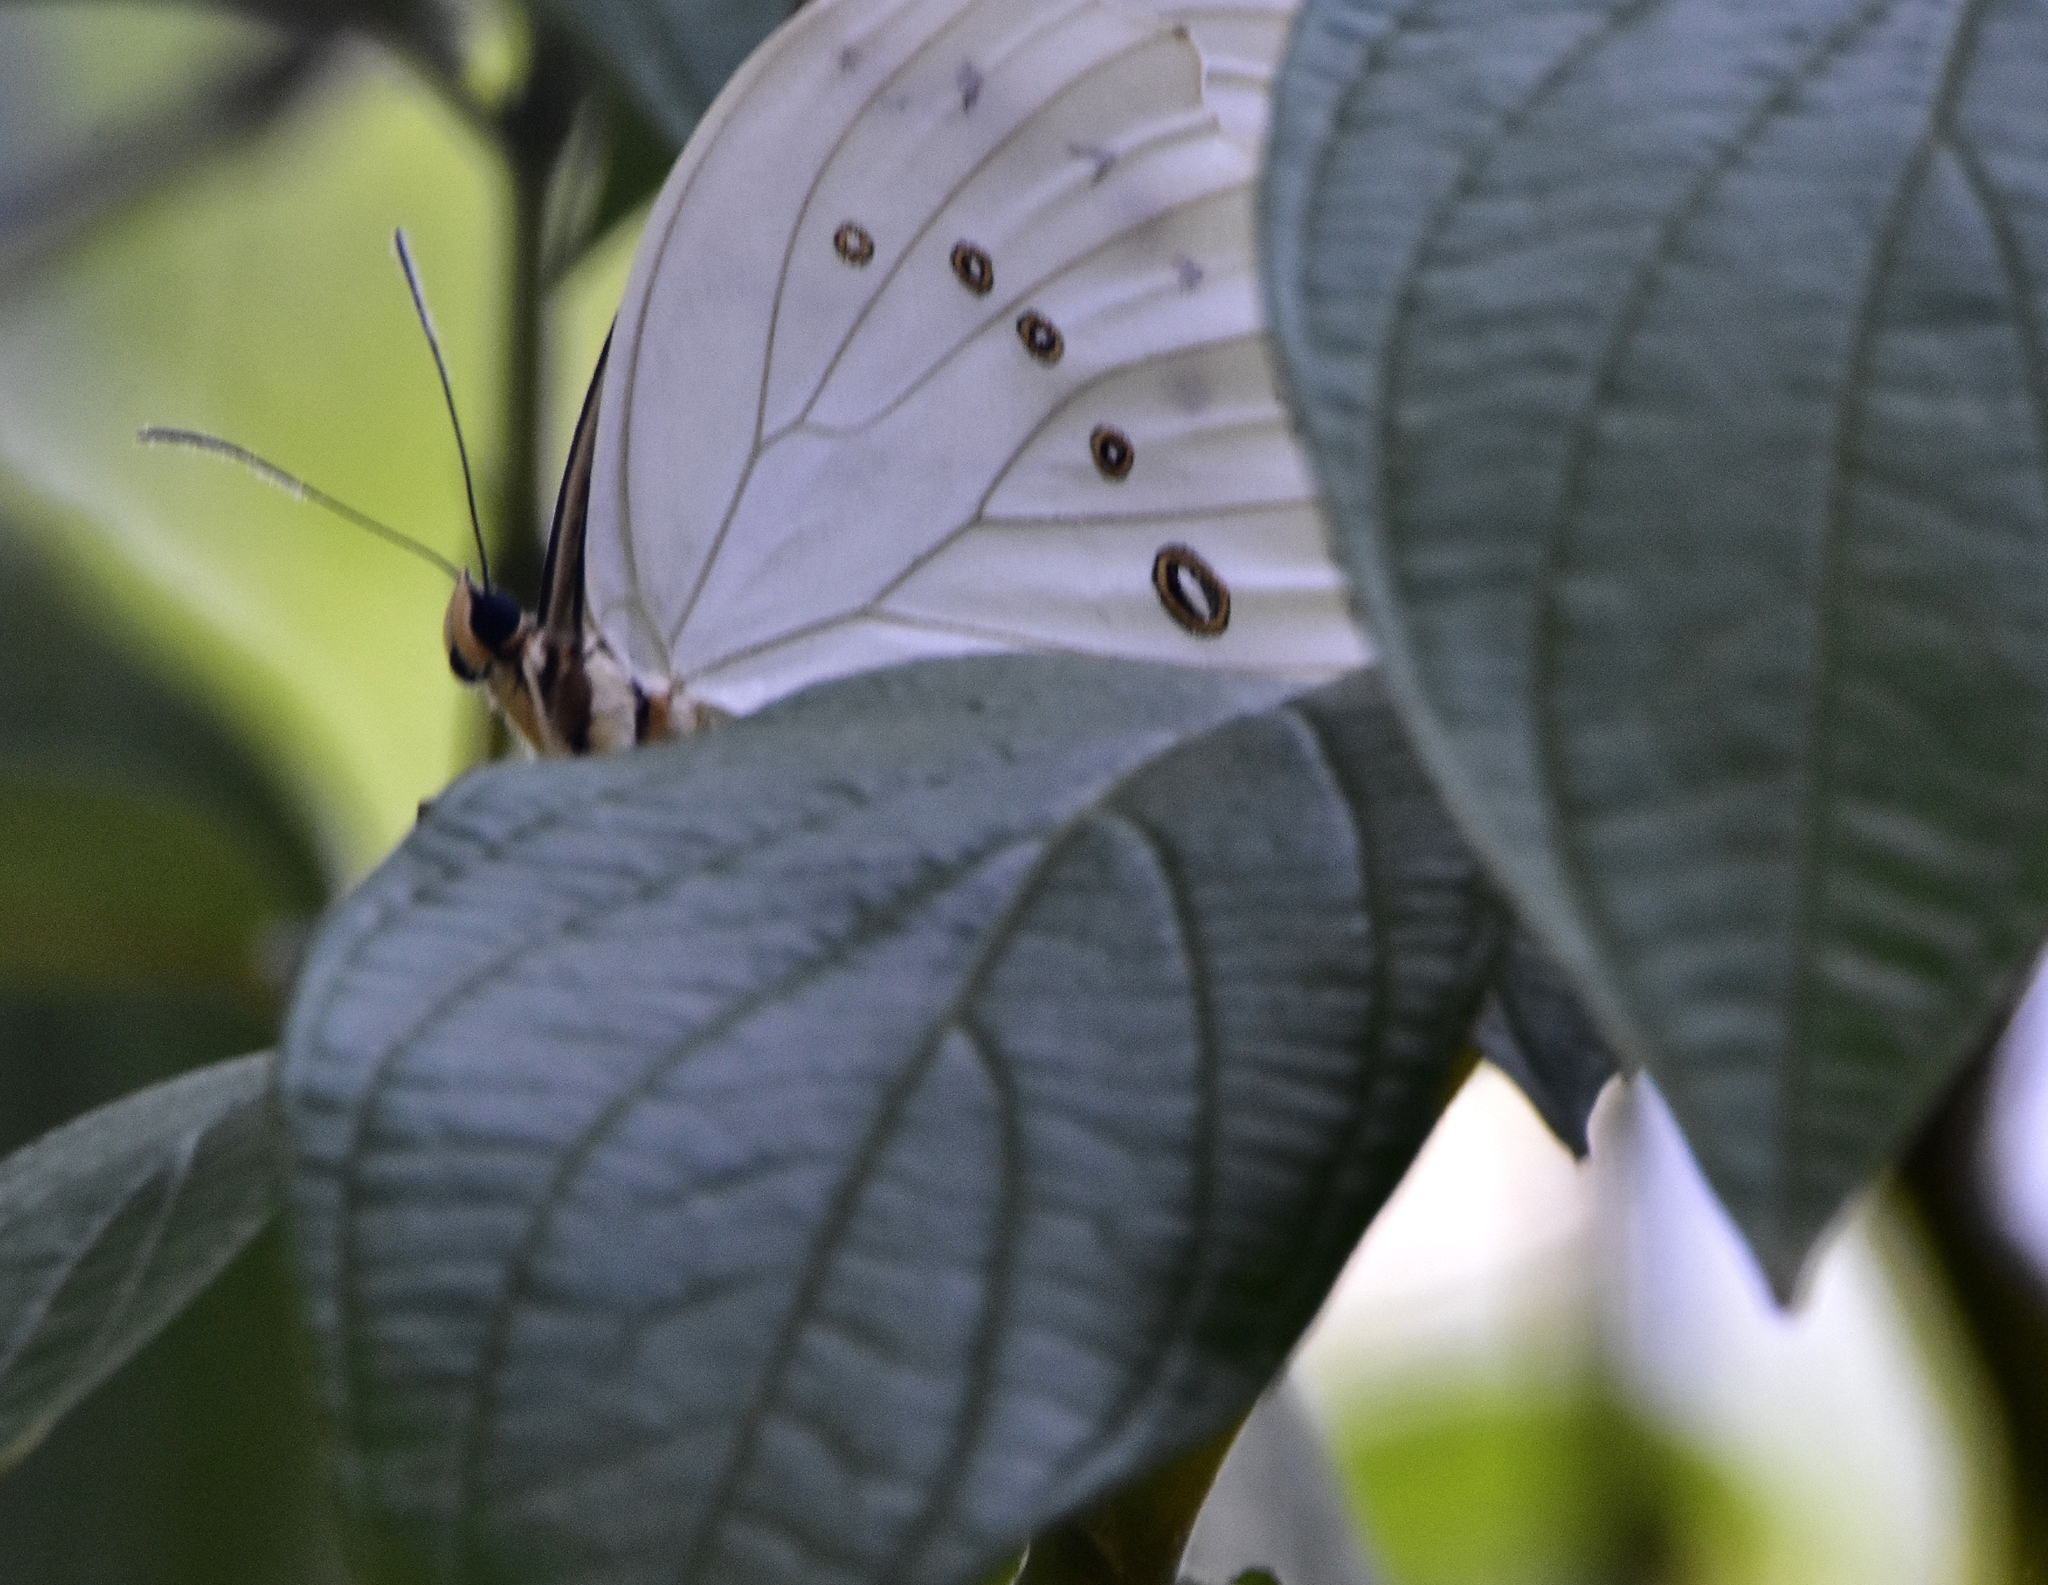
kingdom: Animalia
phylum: Arthropoda
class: Insecta
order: Lepidoptera
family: Nymphalidae
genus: Morpho
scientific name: Morpho polyphemus
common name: White morpho
